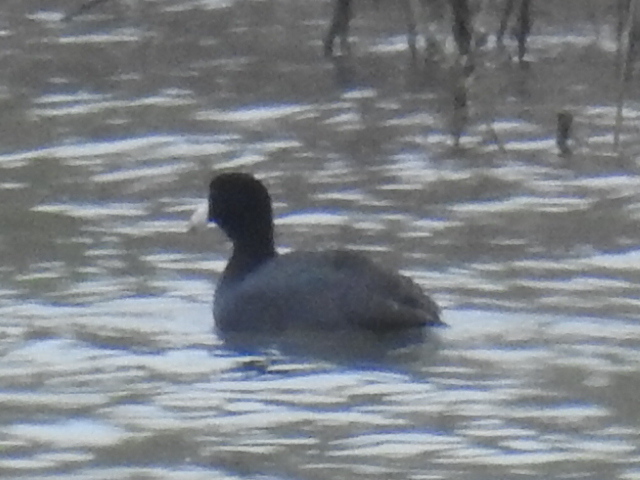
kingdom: Animalia
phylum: Chordata
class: Aves
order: Gruiformes
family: Rallidae
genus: Fulica
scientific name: Fulica americana
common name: American coot
